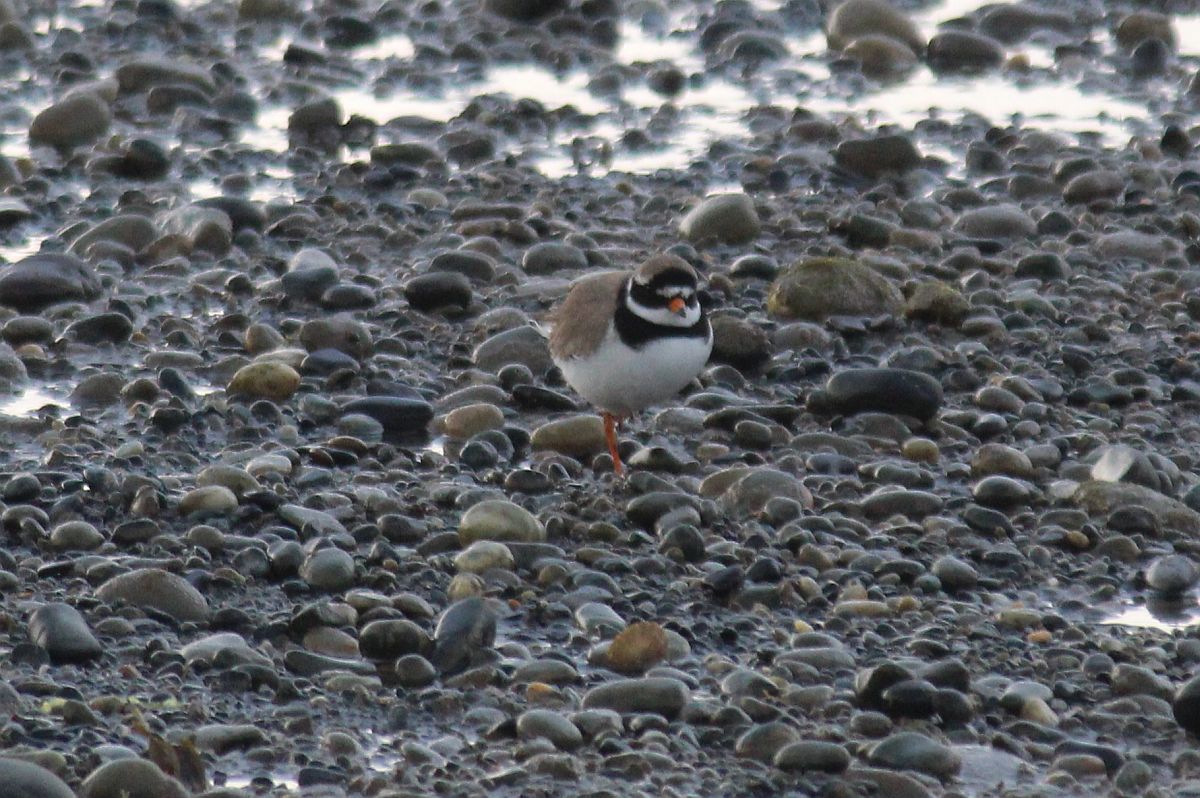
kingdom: Animalia
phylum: Chordata
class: Aves
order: Charadriiformes
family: Charadriidae
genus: Charadrius
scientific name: Charadrius hiaticula
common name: Common ringed plover
